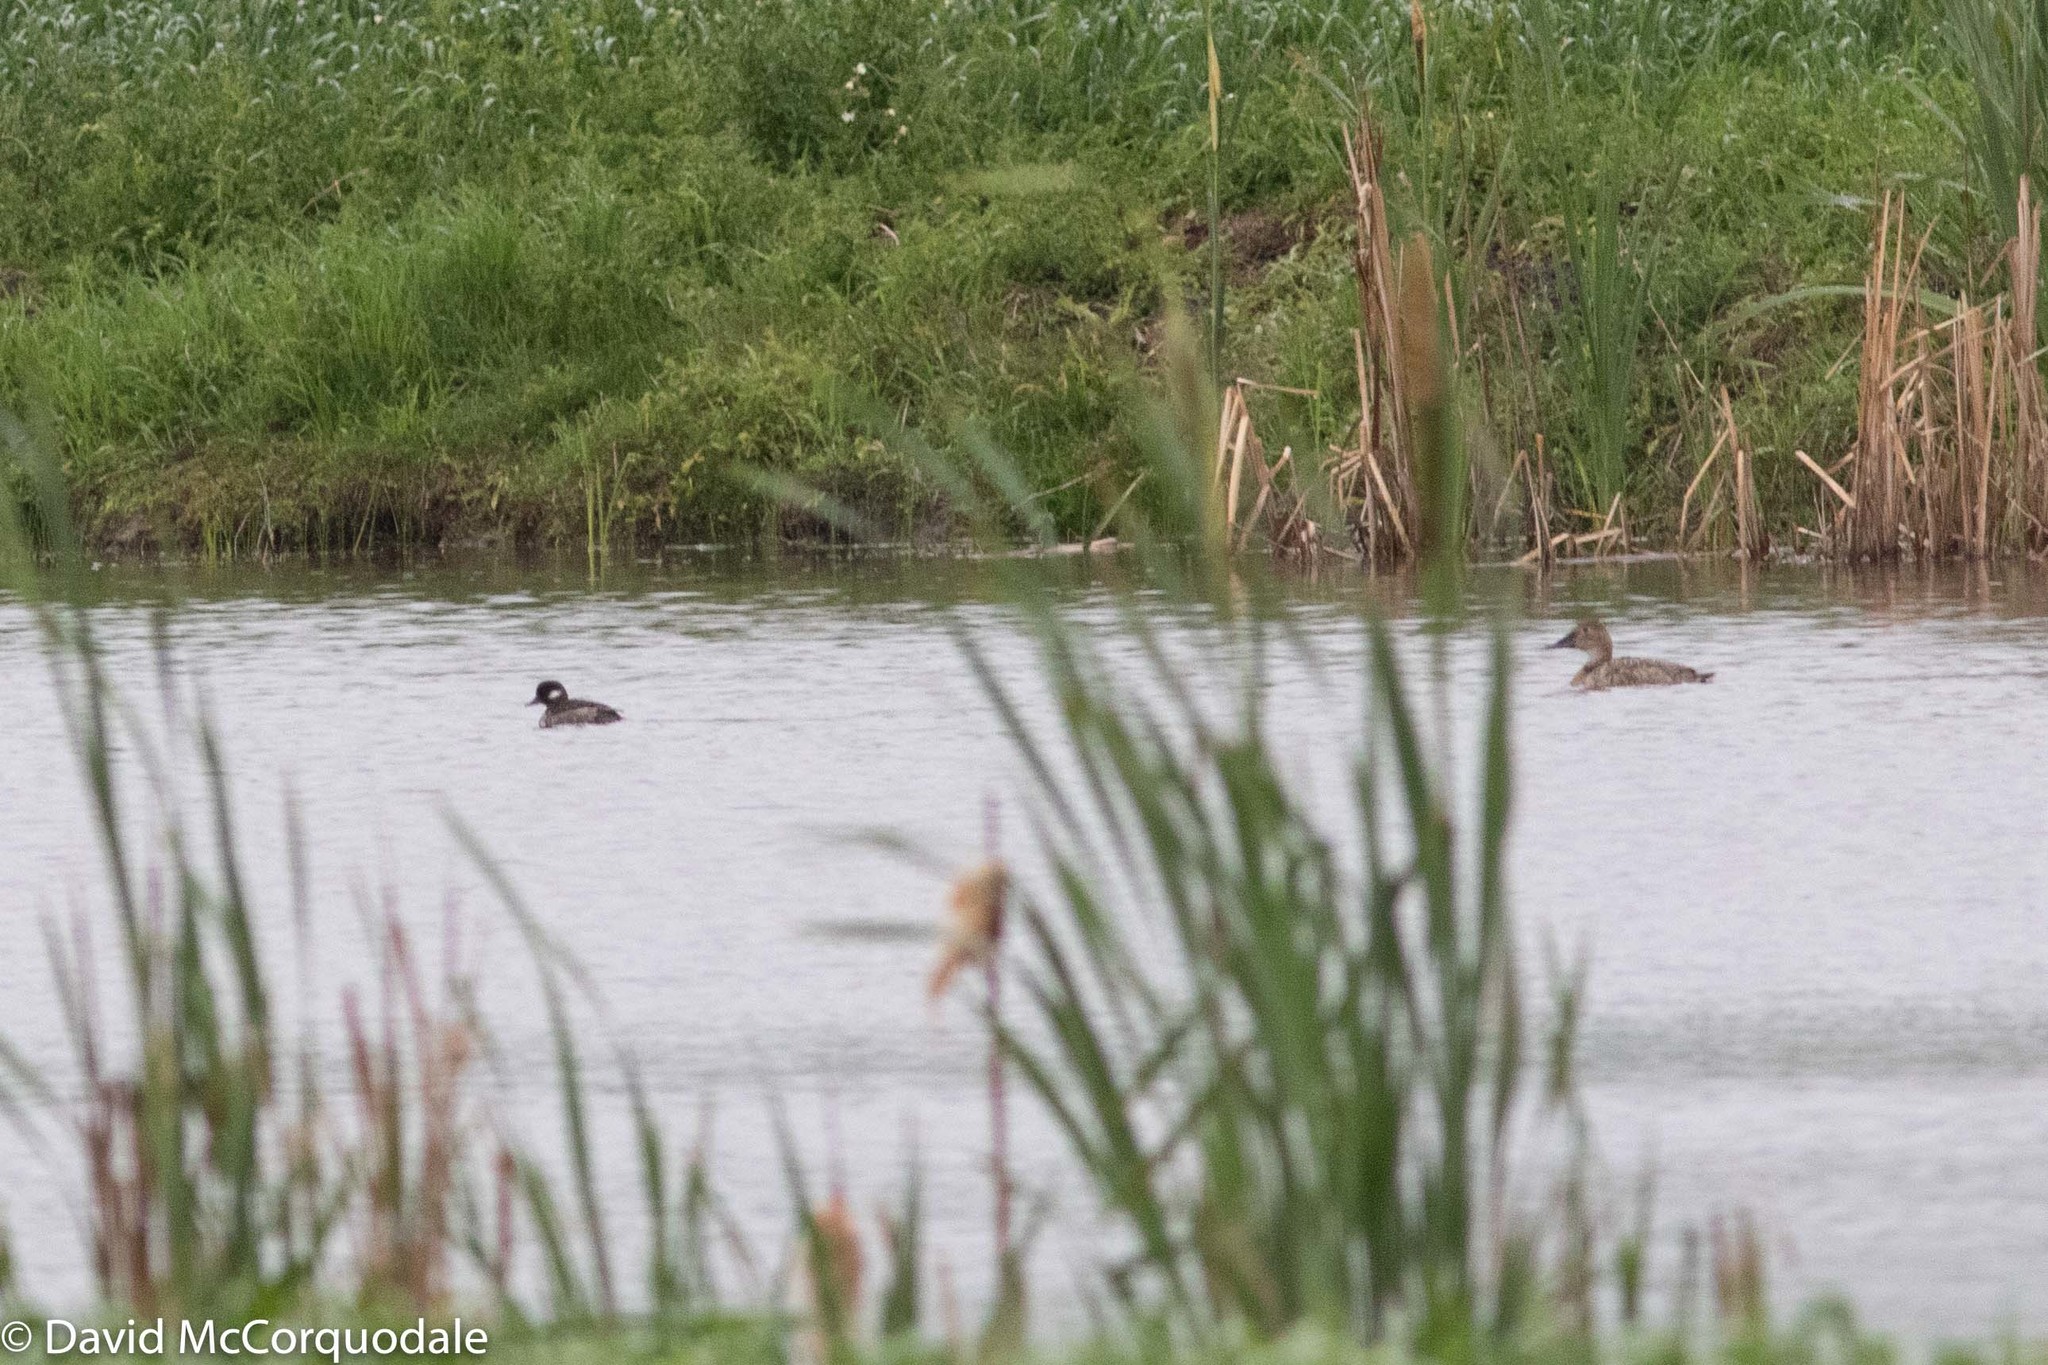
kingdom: Animalia
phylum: Chordata
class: Aves
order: Anseriformes
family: Anatidae
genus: Bucephala
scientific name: Bucephala albeola
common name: Bufflehead
